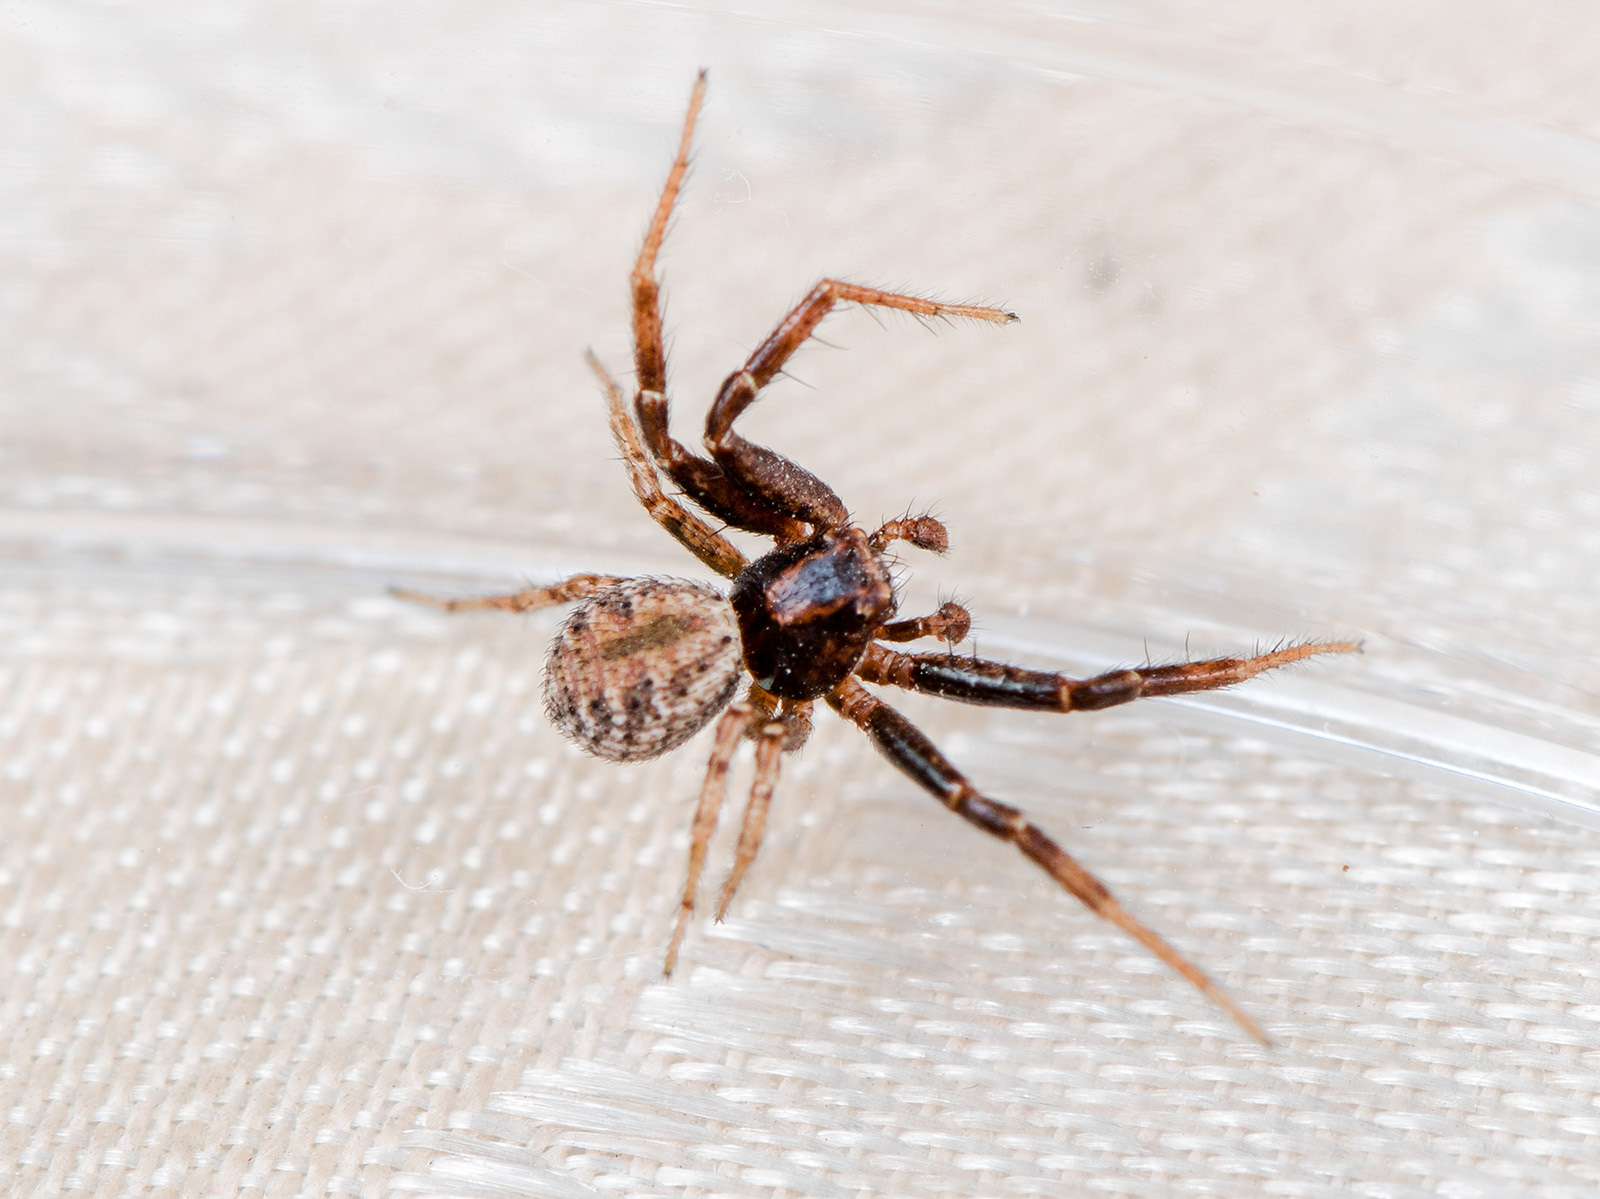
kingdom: Animalia
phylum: Arthropoda
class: Arachnida
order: Araneae
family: Thomisidae
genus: Psammitis
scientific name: Psammitis minor
